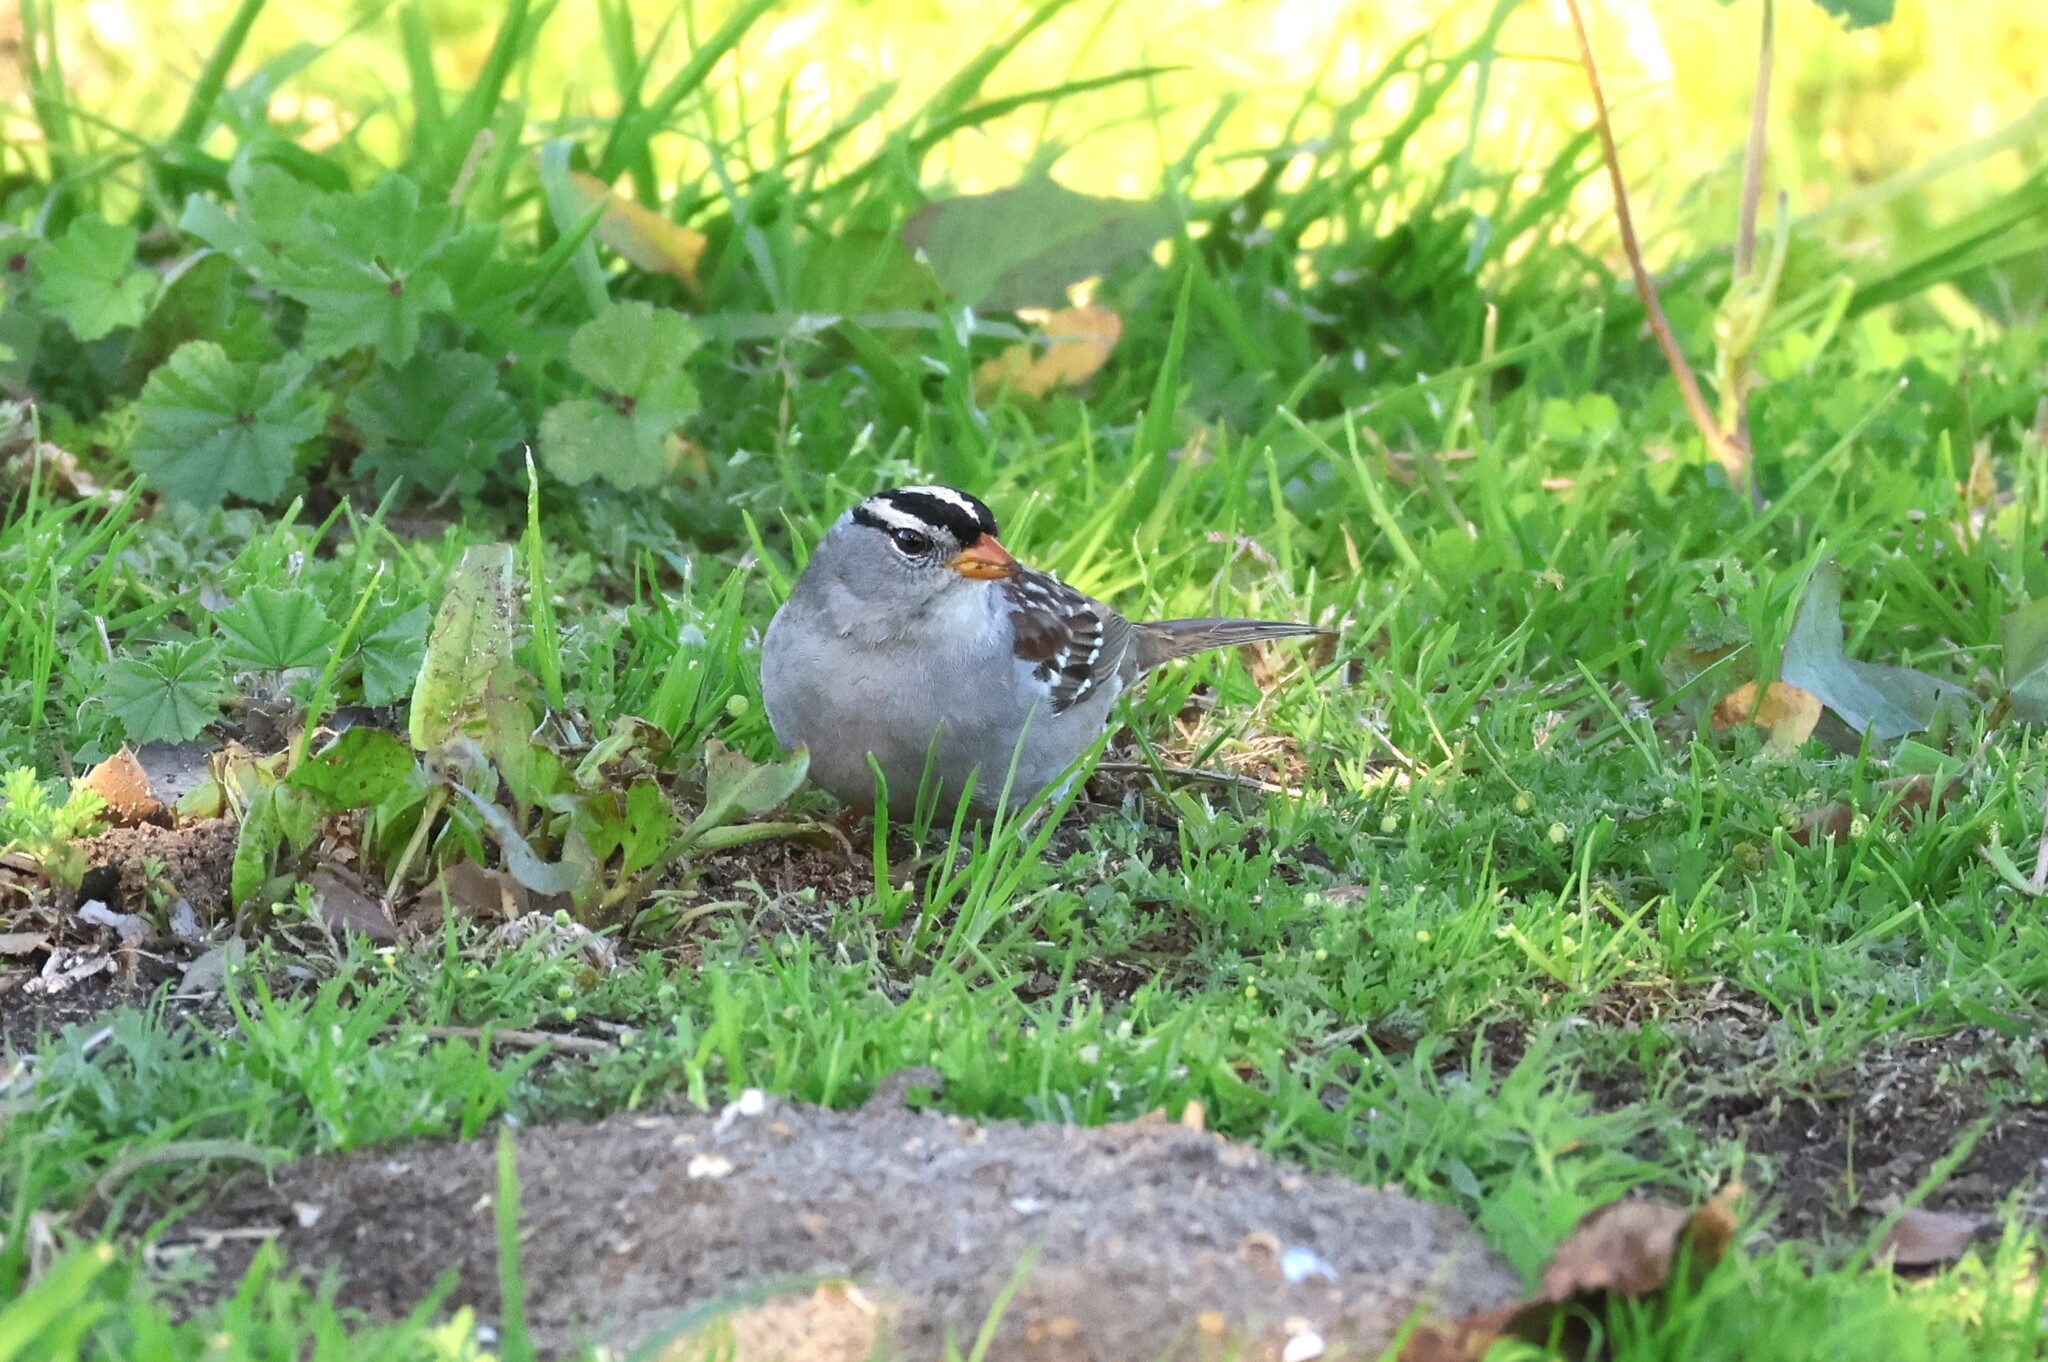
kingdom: Animalia
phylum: Chordata
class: Aves
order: Passeriformes
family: Passerellidae
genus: Zonotrichia
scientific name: Zonotrichia leucophrys
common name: White-crowned sparrow
